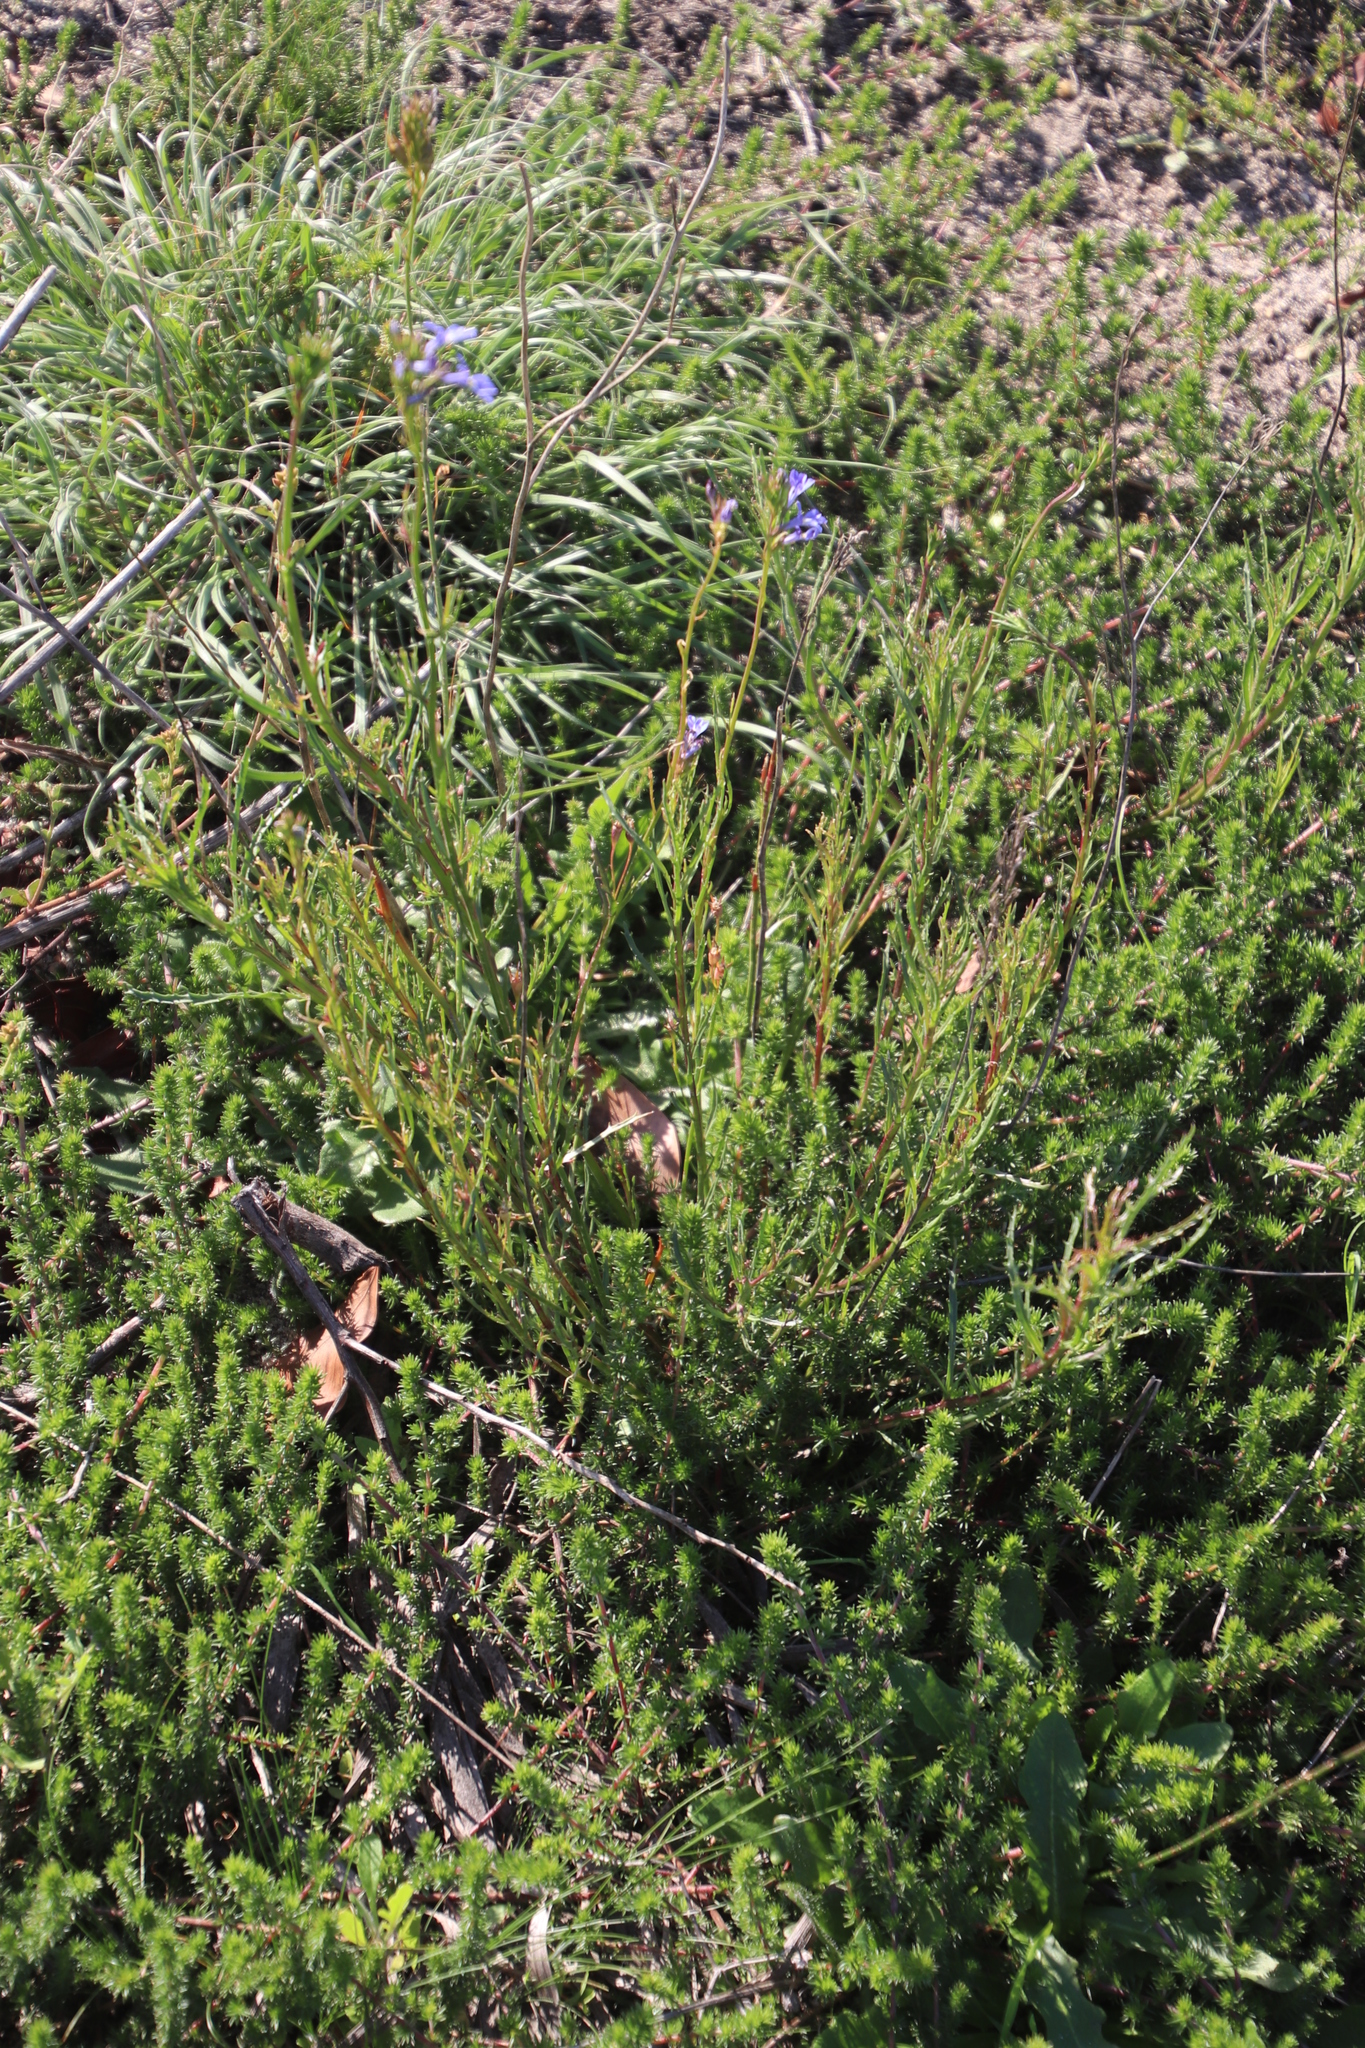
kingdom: Plantae
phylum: Tracheophyta
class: Magnoliopsida
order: Rosales
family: Rhamnaceae
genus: Phylica
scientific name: Phylica parviflora
